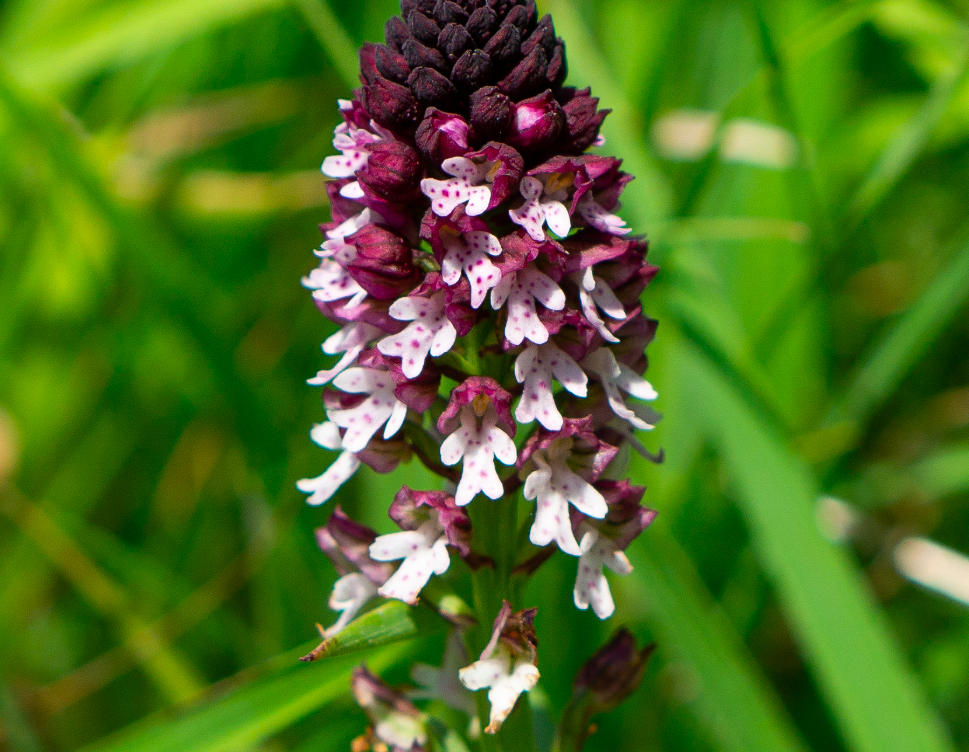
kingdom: Plantae
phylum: Tracheophyta
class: Liliopsida
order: Asparagales
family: Orchidaceae
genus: Neotinea
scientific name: Neotinea ustulata
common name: Burnt orchid
